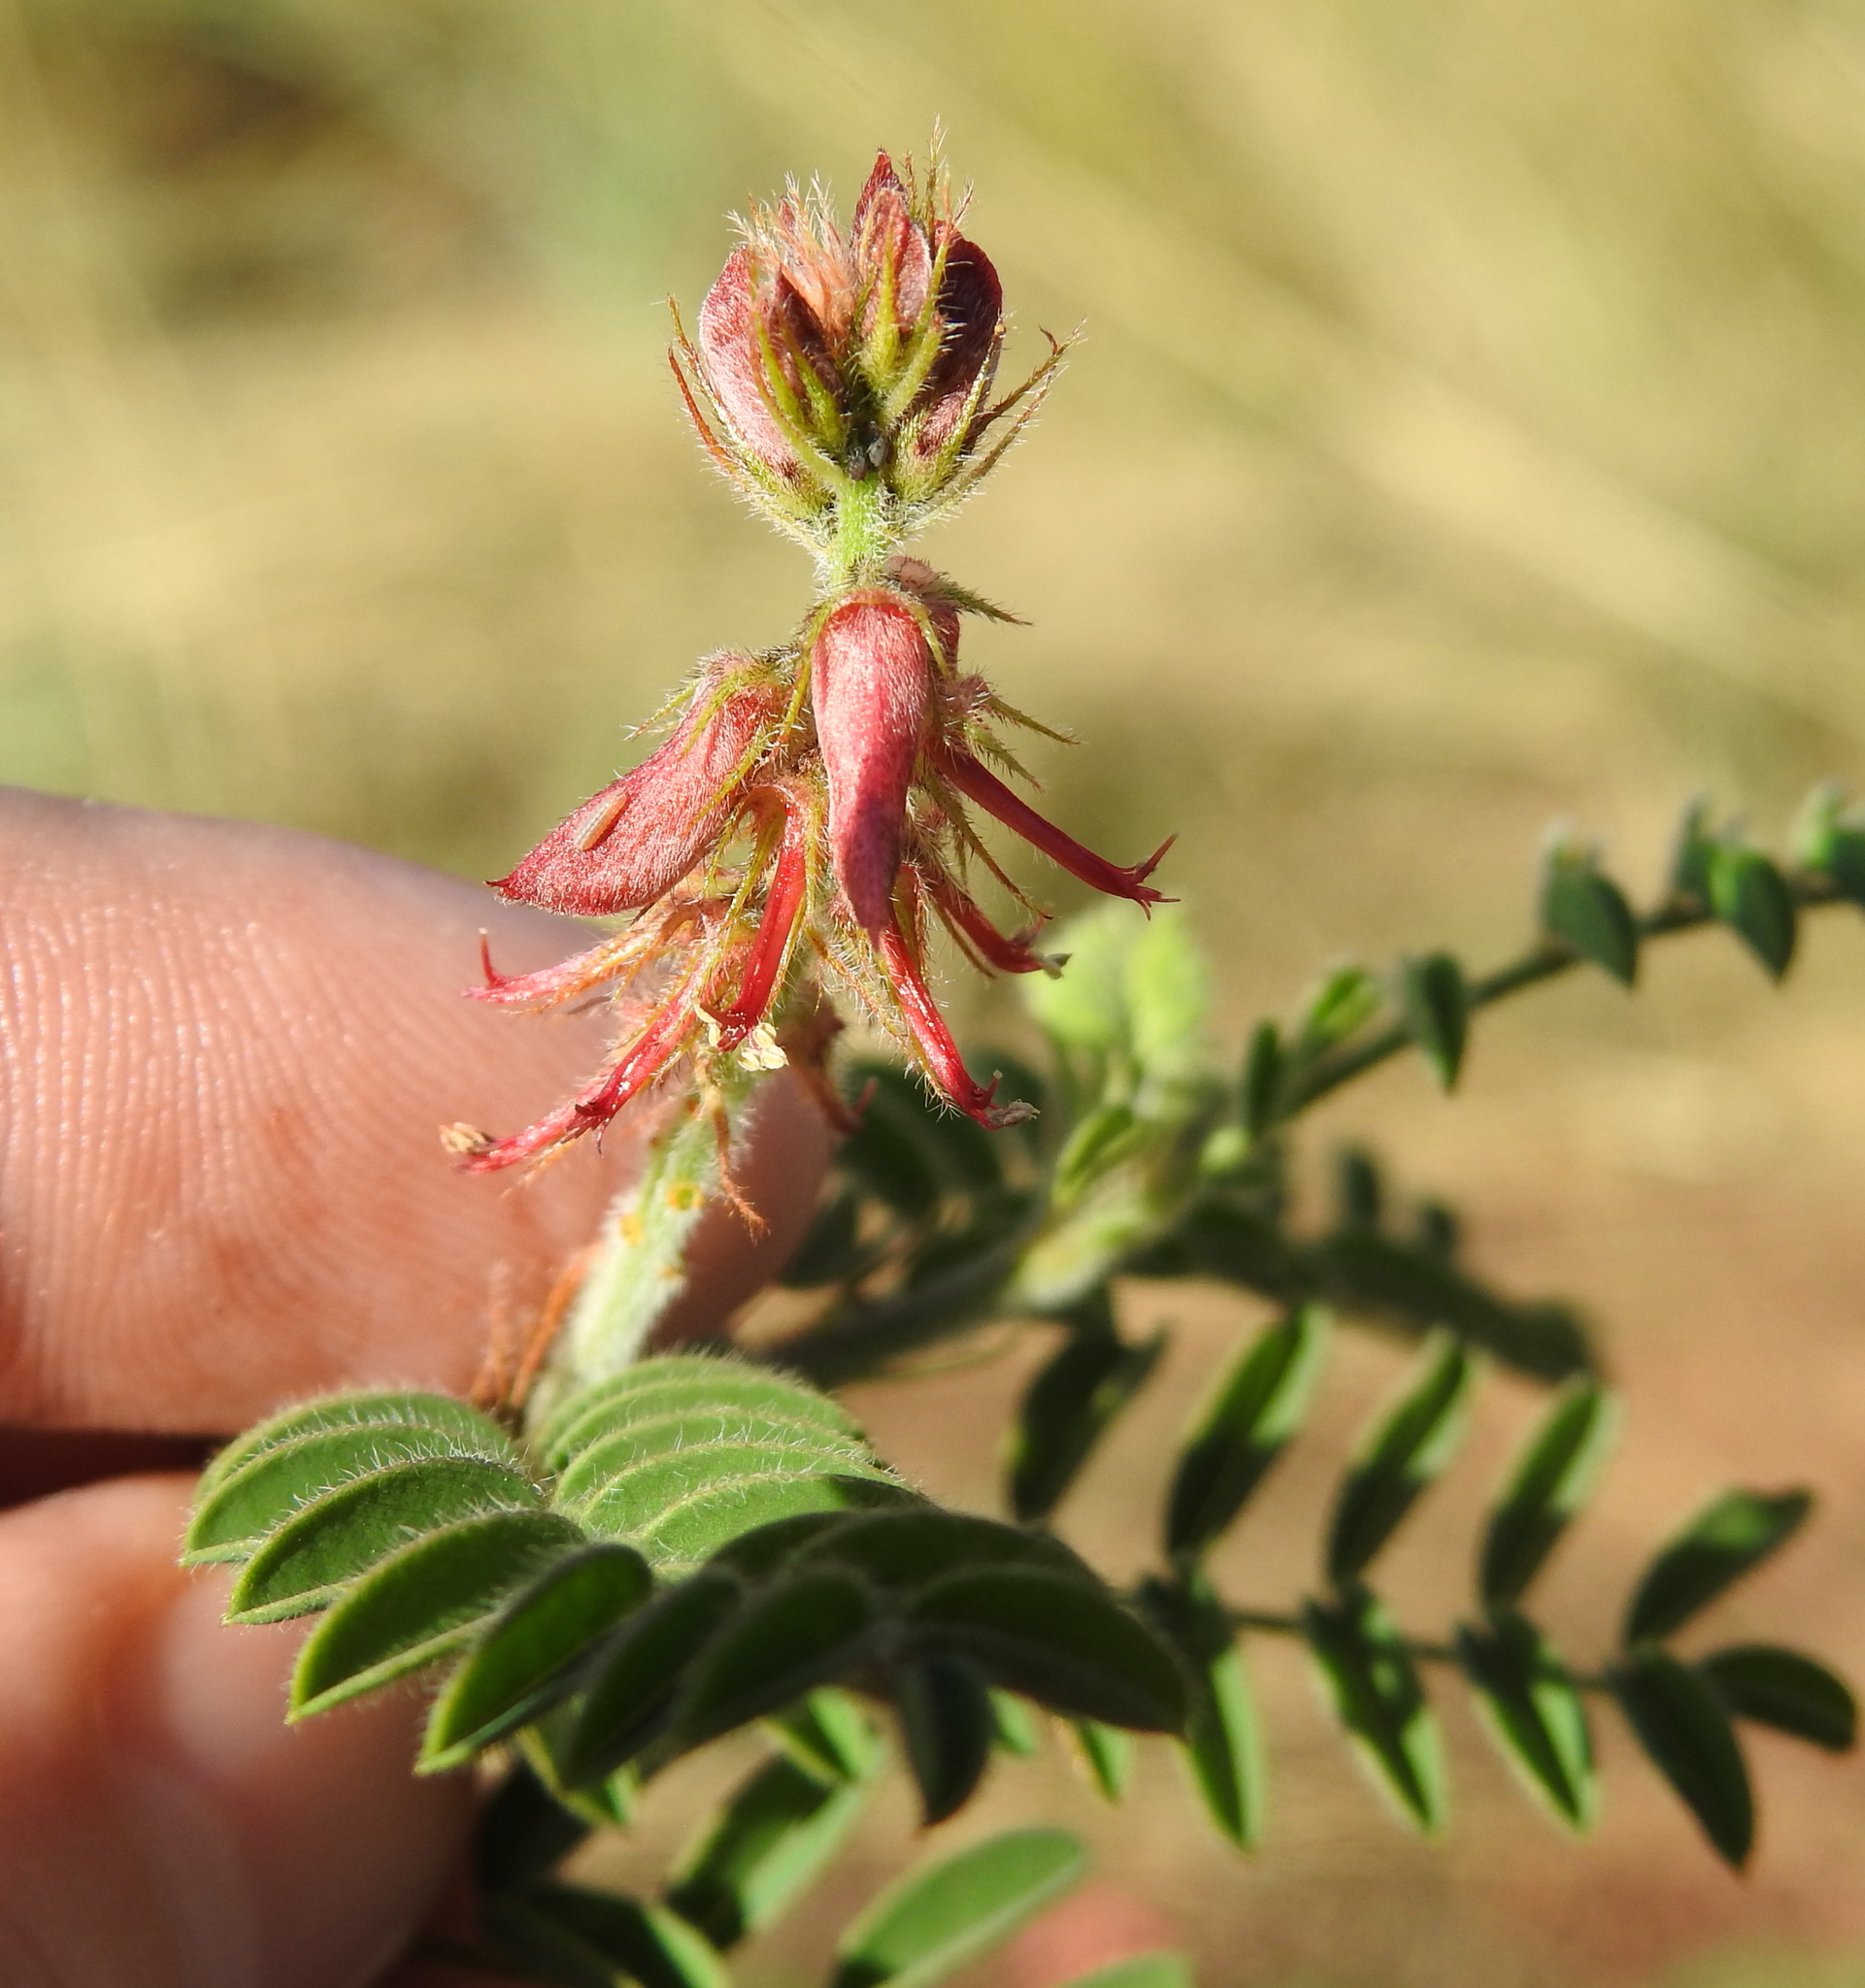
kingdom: Plantae
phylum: Tracheophyta
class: Magnoliopsida
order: Fabales
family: Fabaceae
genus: Indigofera
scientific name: Indigofera comosa
